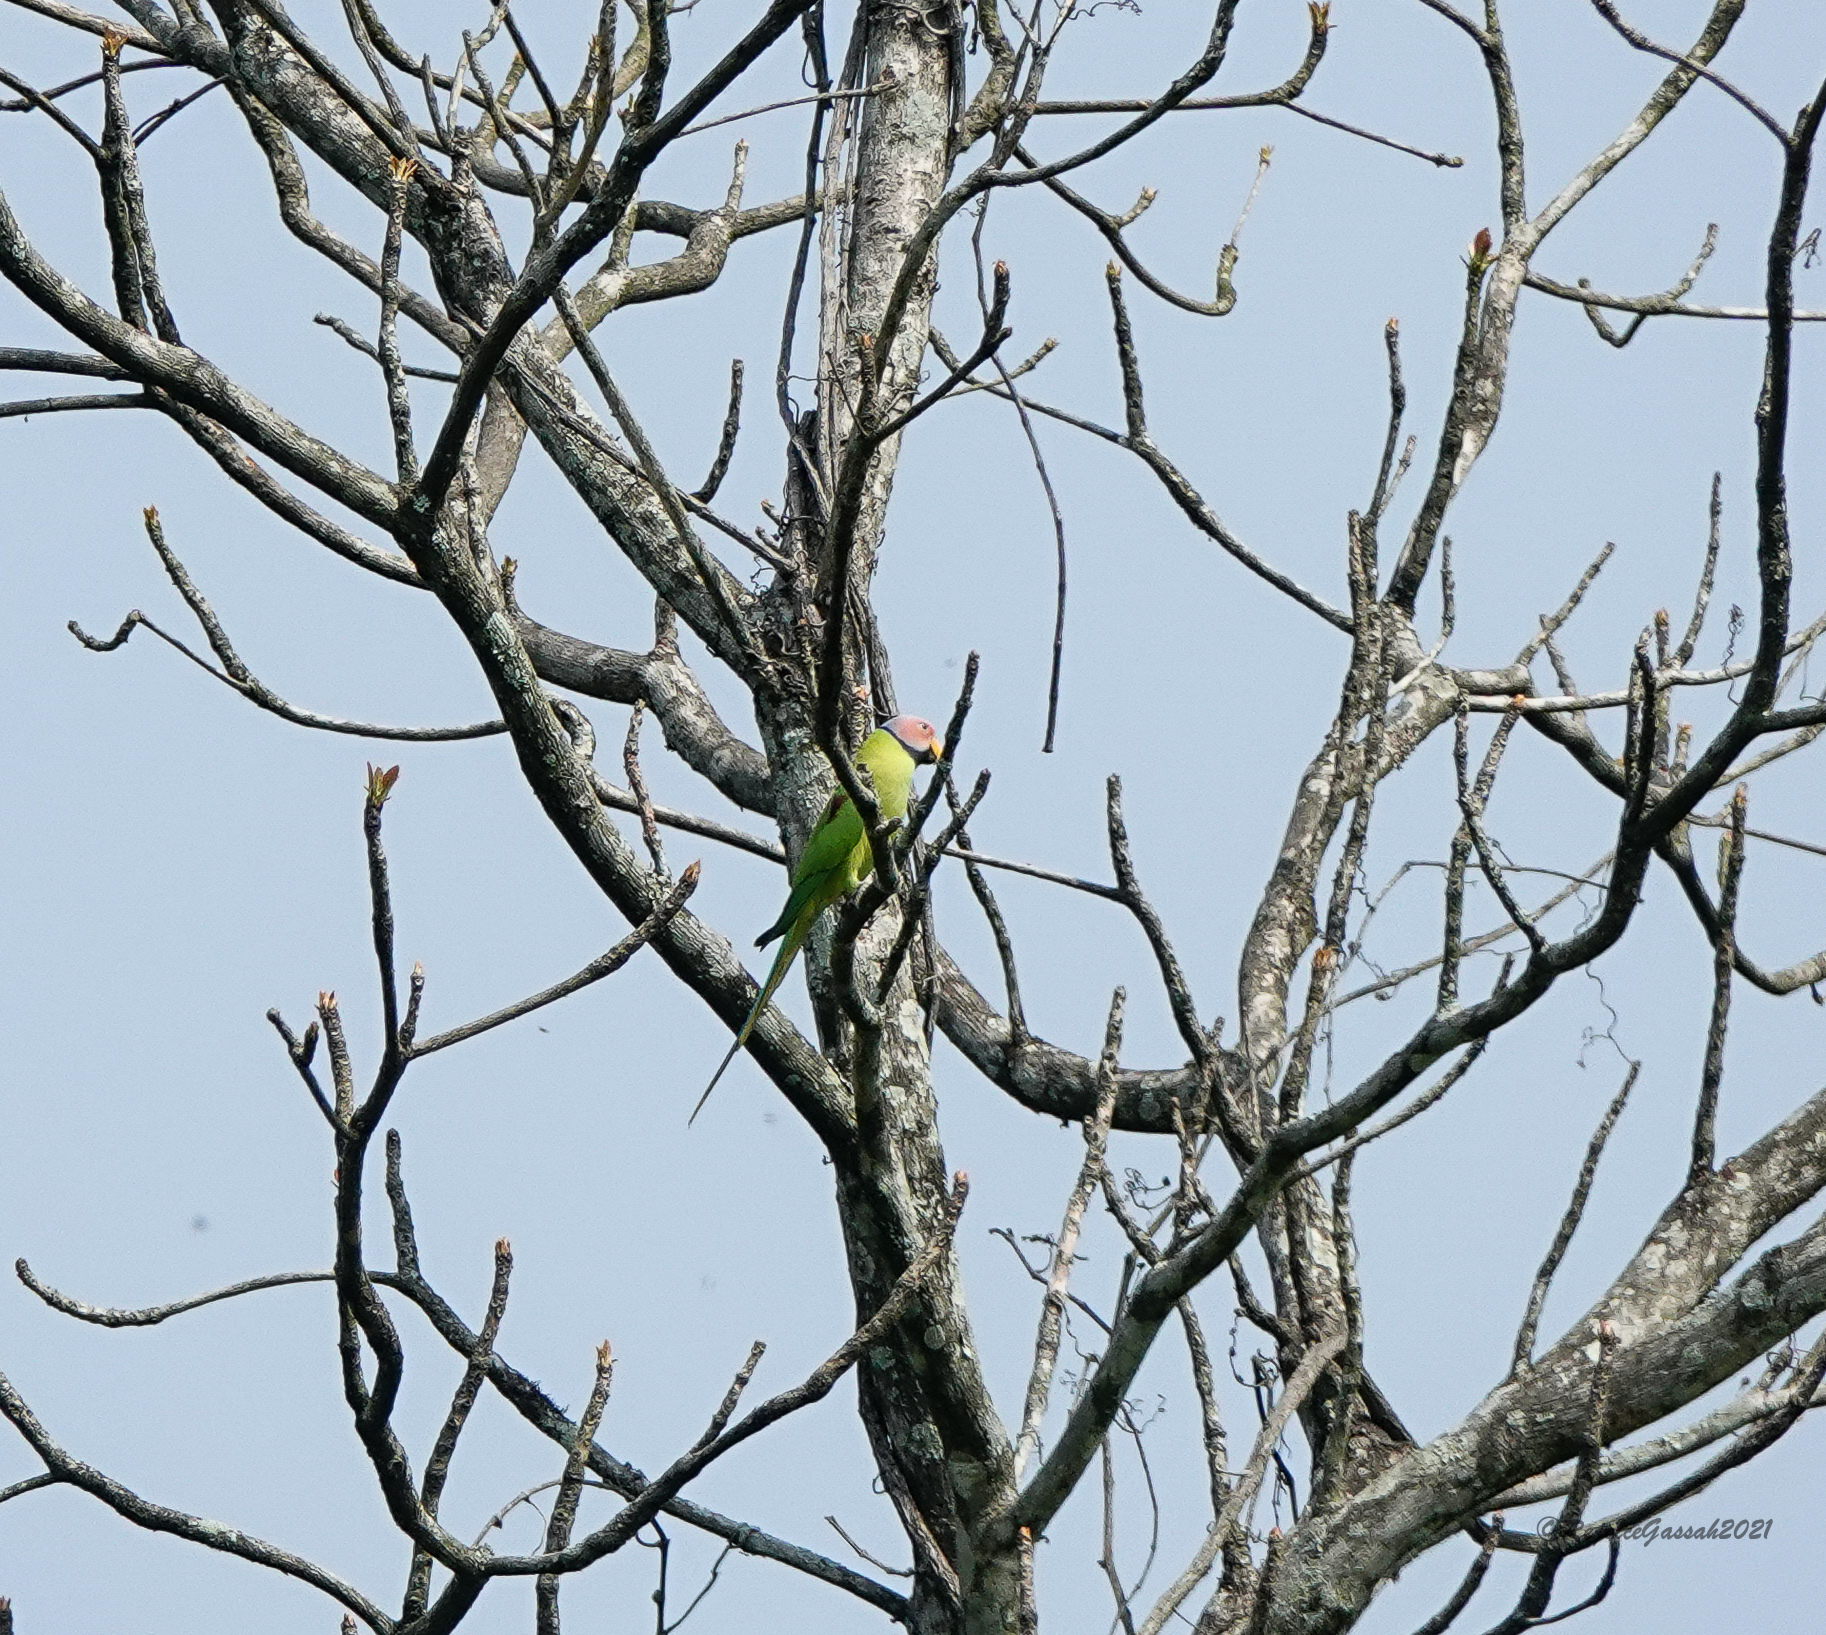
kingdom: Animalia
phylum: Chordata
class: Aves
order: Psittaciformes
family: Psittacidae
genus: Psittacula
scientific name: Psittacula roseata
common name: Blossom-headed parakeet
